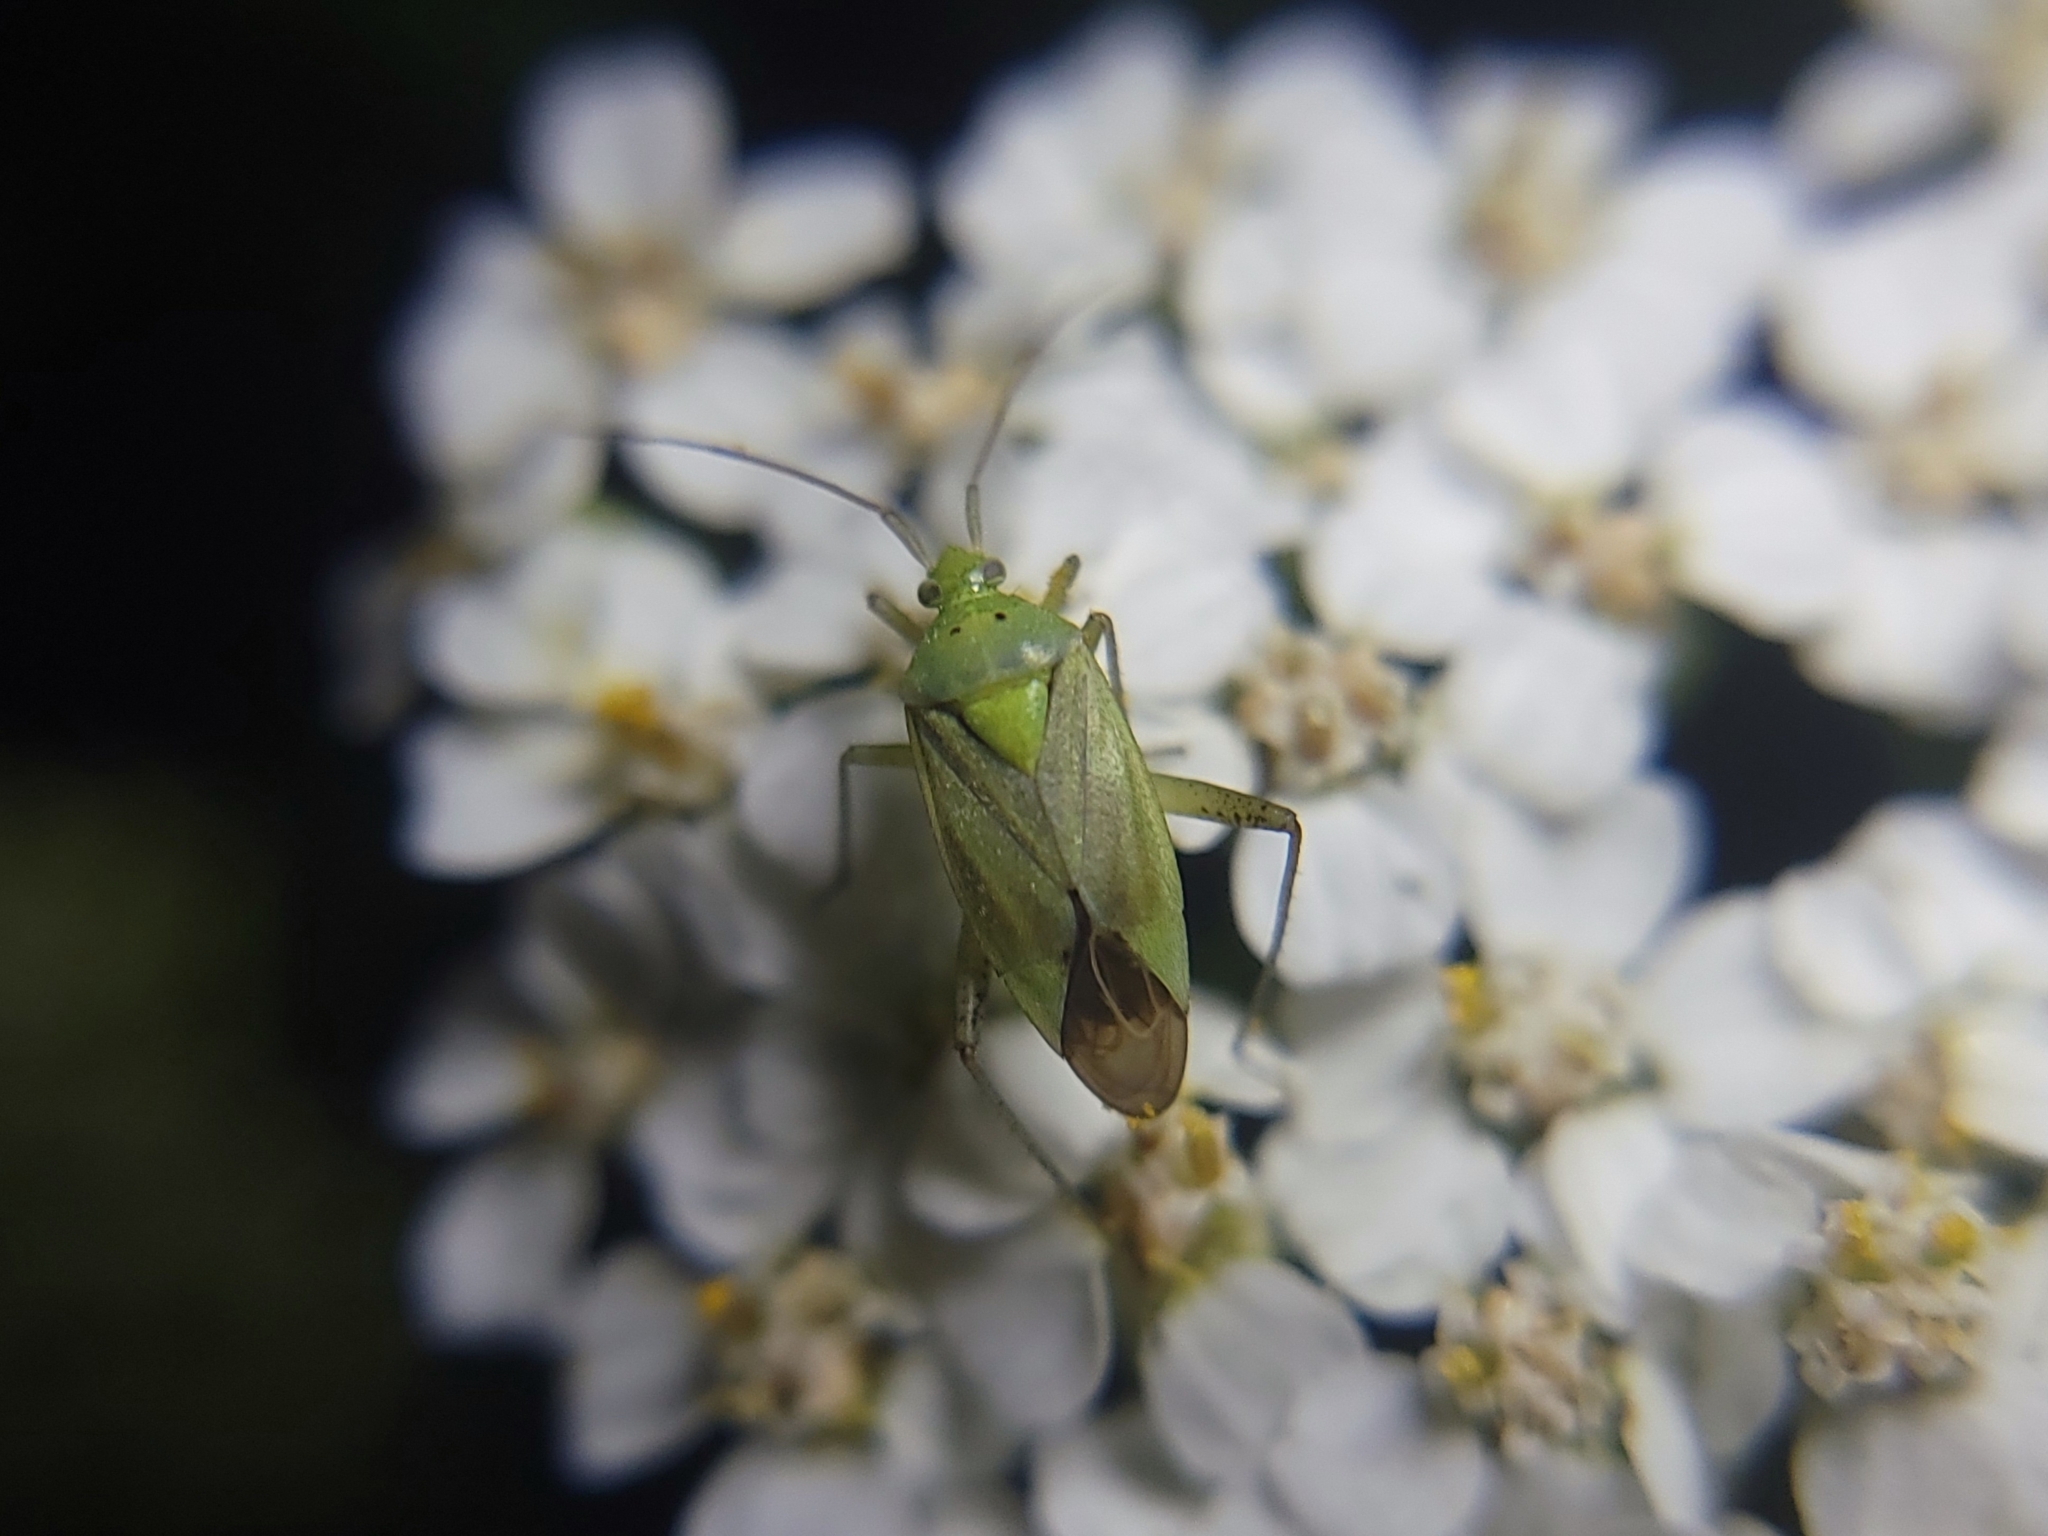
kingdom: Animalia
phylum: Arthropoda
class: Insecta
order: Hemiptera
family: Miridae
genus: Closterotomus
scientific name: Closterotomus norvegicus
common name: Plant bug
